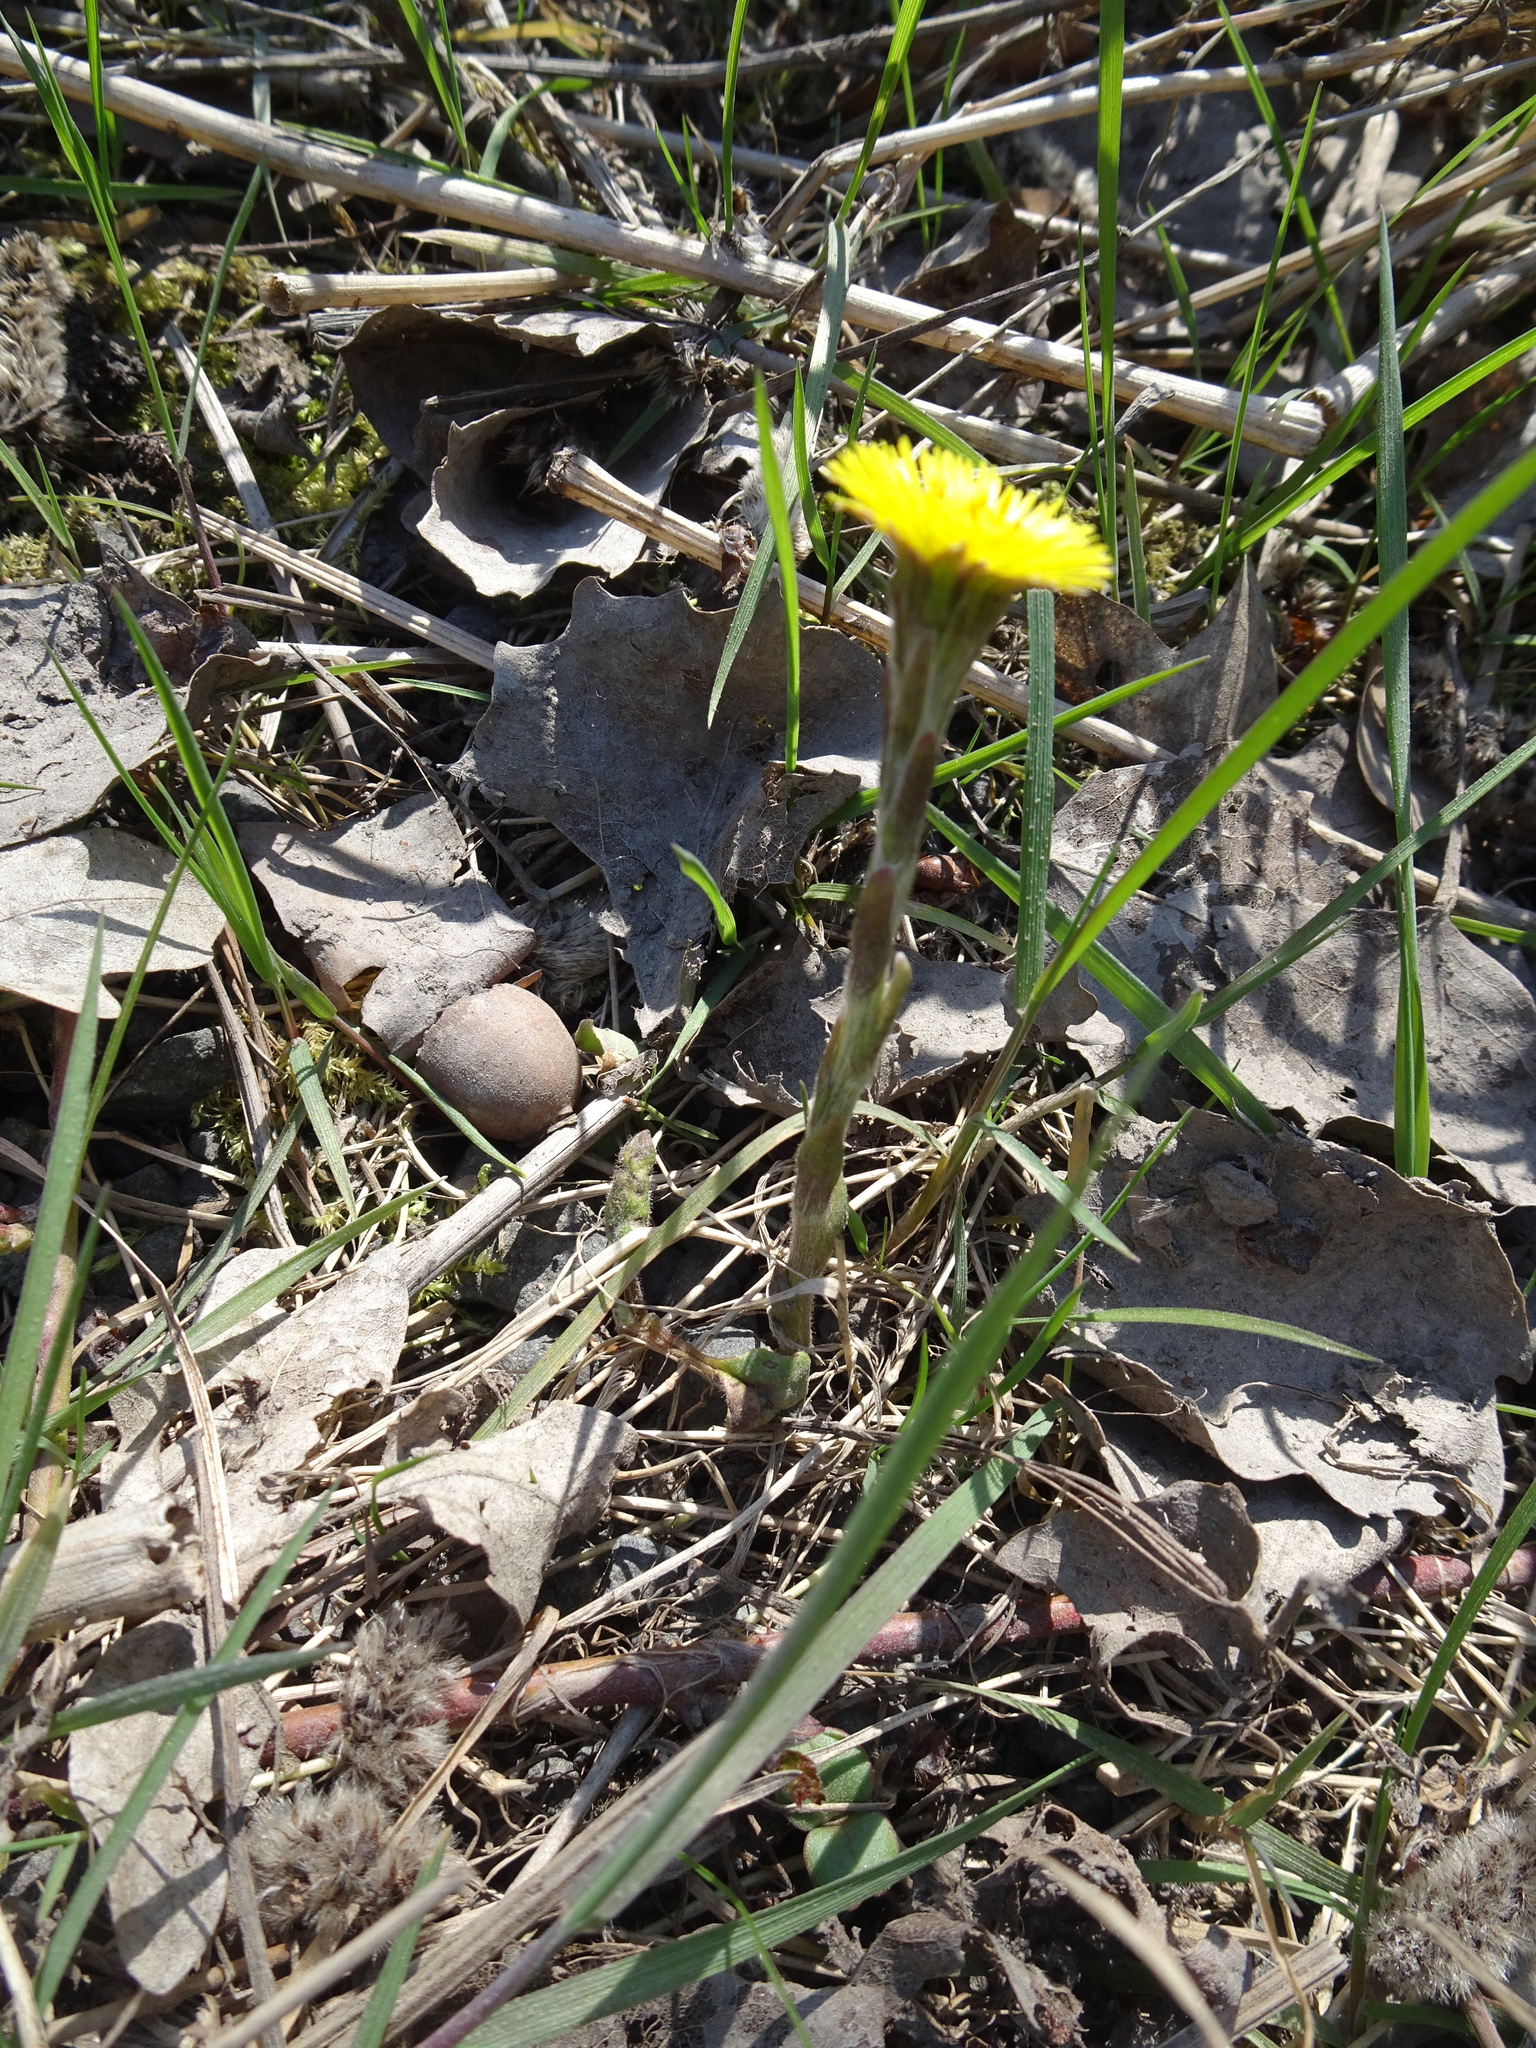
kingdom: Plantae
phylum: Tracheophyta
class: Magnoliopsida
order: Asterales
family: Asteraceae
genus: Tussilago
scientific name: Tussilago farfara
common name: Coltsfoot
